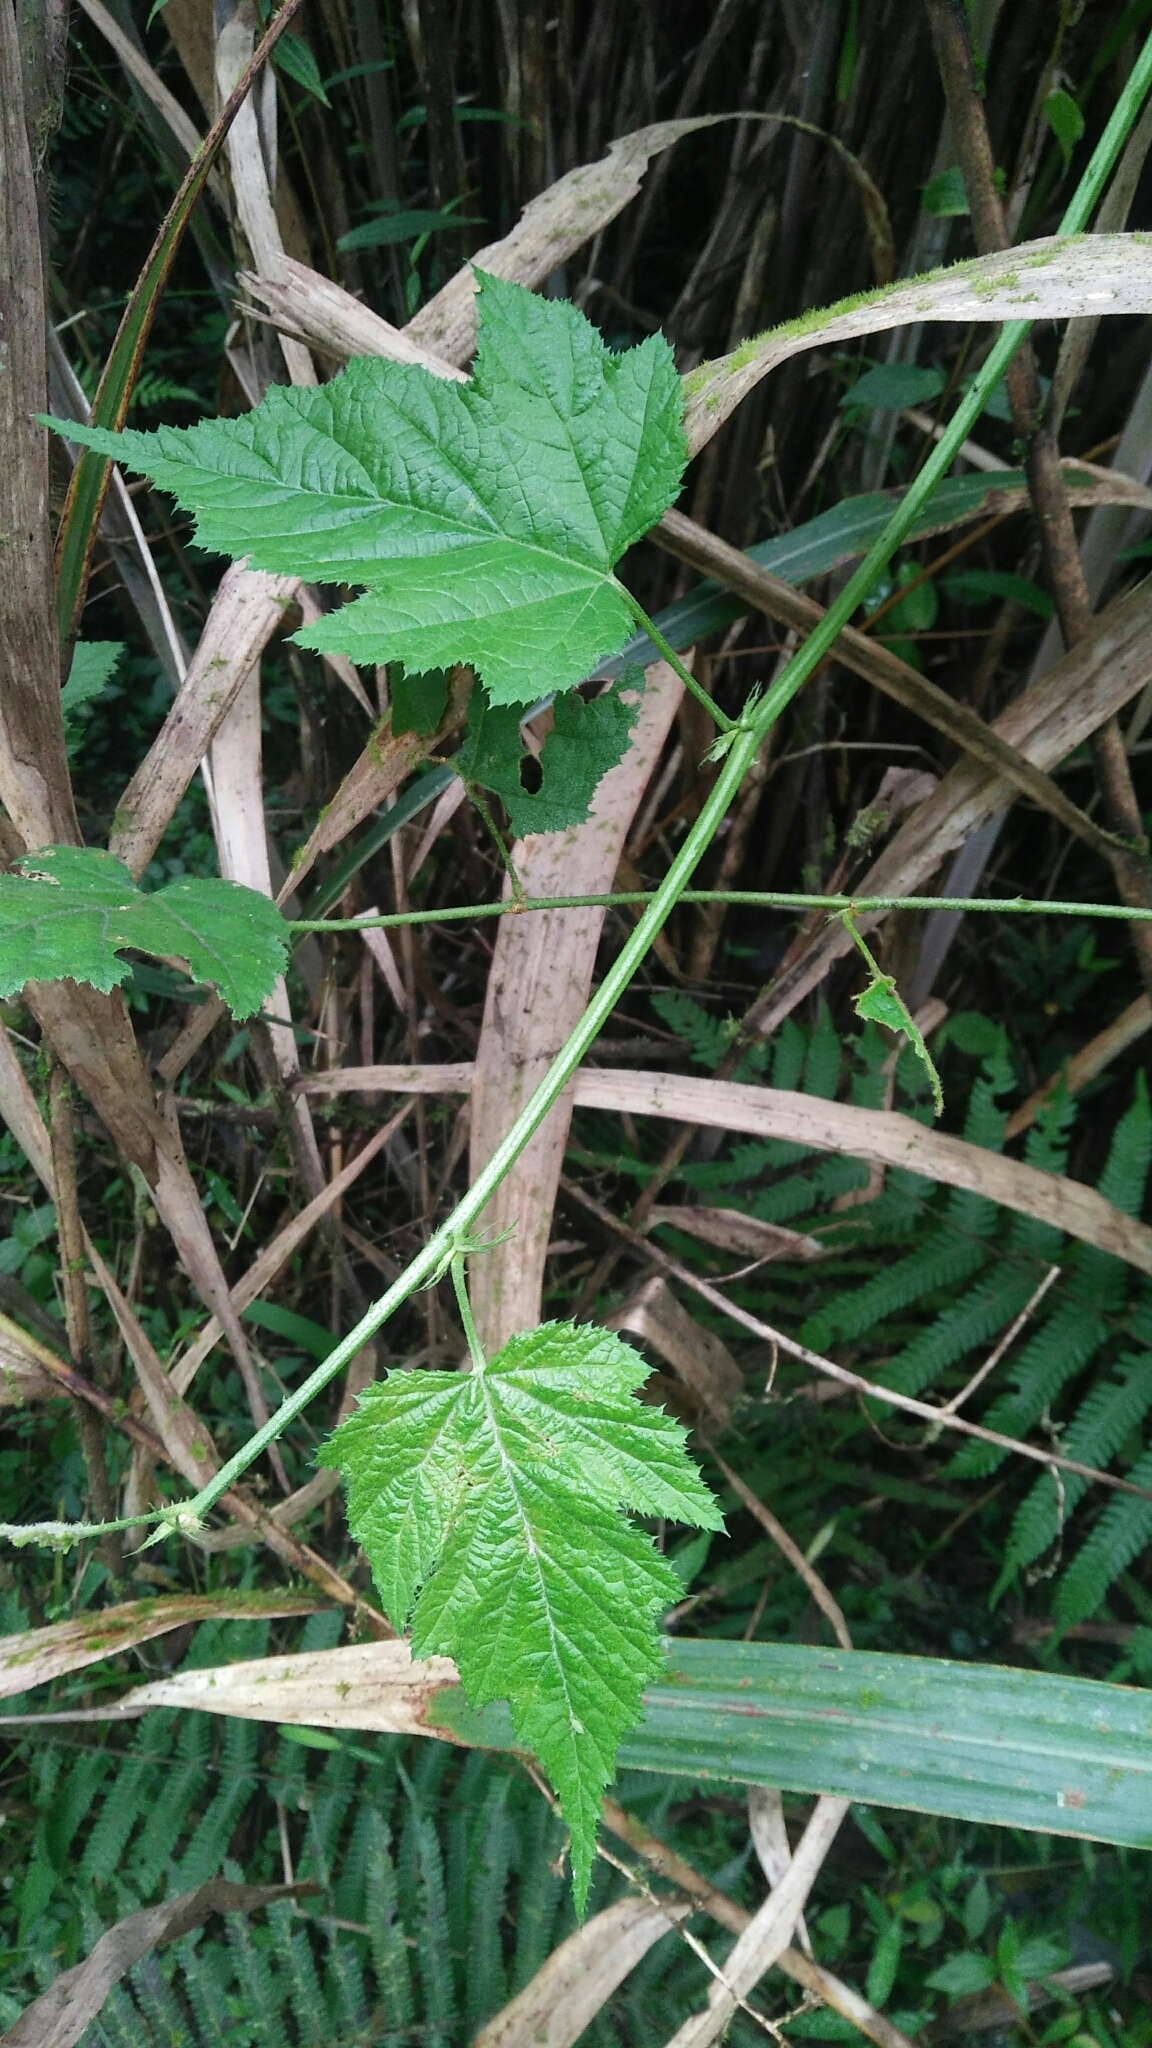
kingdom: Plantae
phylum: Tracheophyta
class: Magnoliopsida
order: Rosales
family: Rosaceae
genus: Rubus
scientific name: Rubus lambertianus
